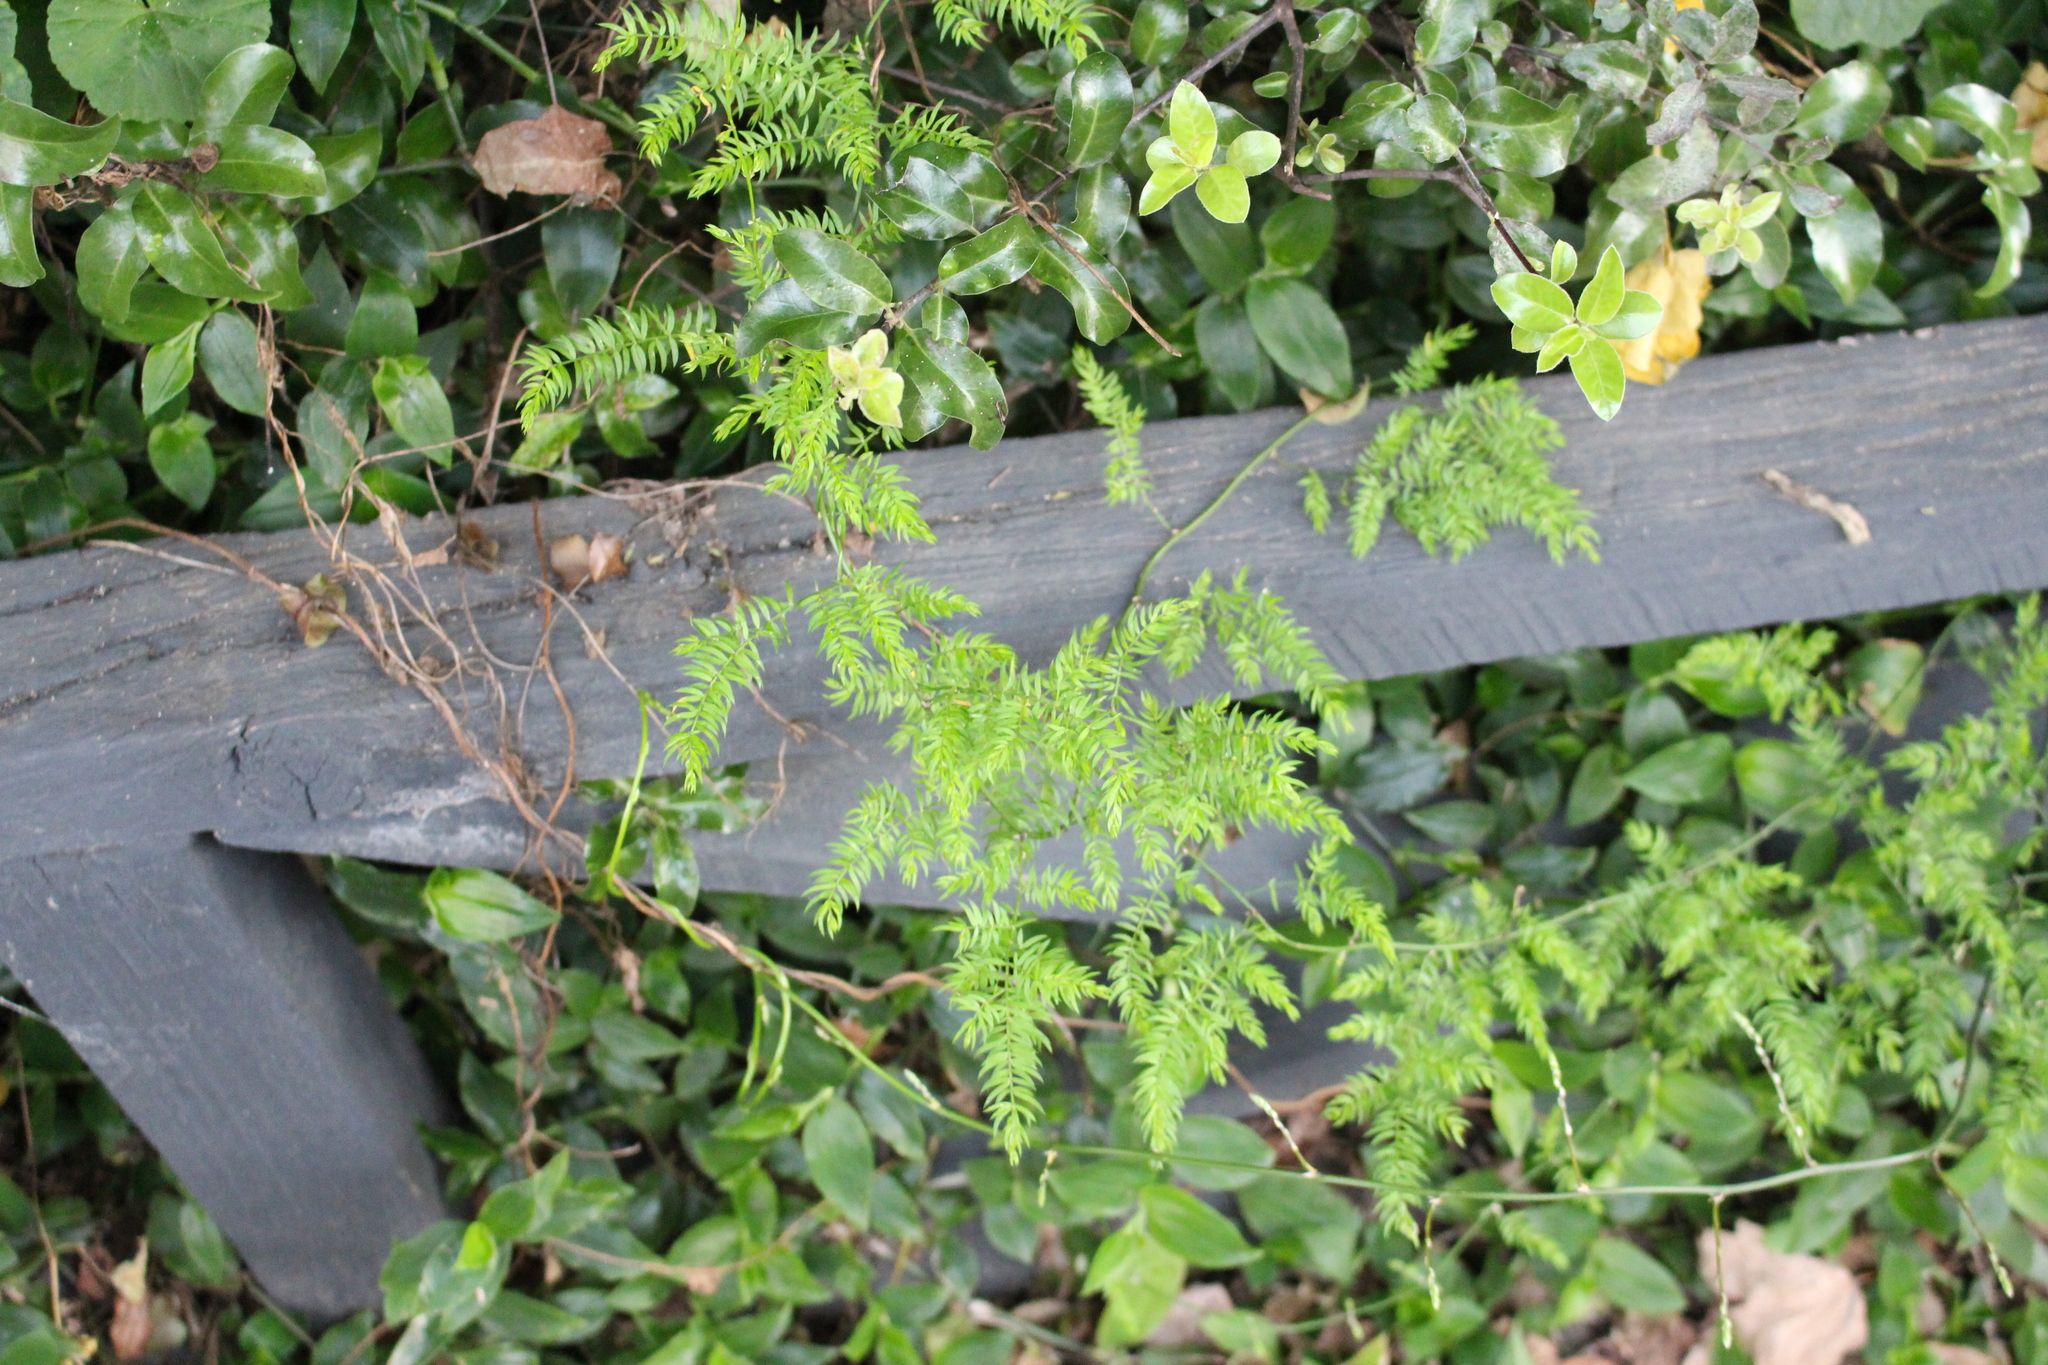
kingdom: Plantae
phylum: Tracheophyta
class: Liliopsida
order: Asparagales
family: Asparagaceae
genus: Asparagus
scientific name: Asparagus scandens
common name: Asparagus-fern
